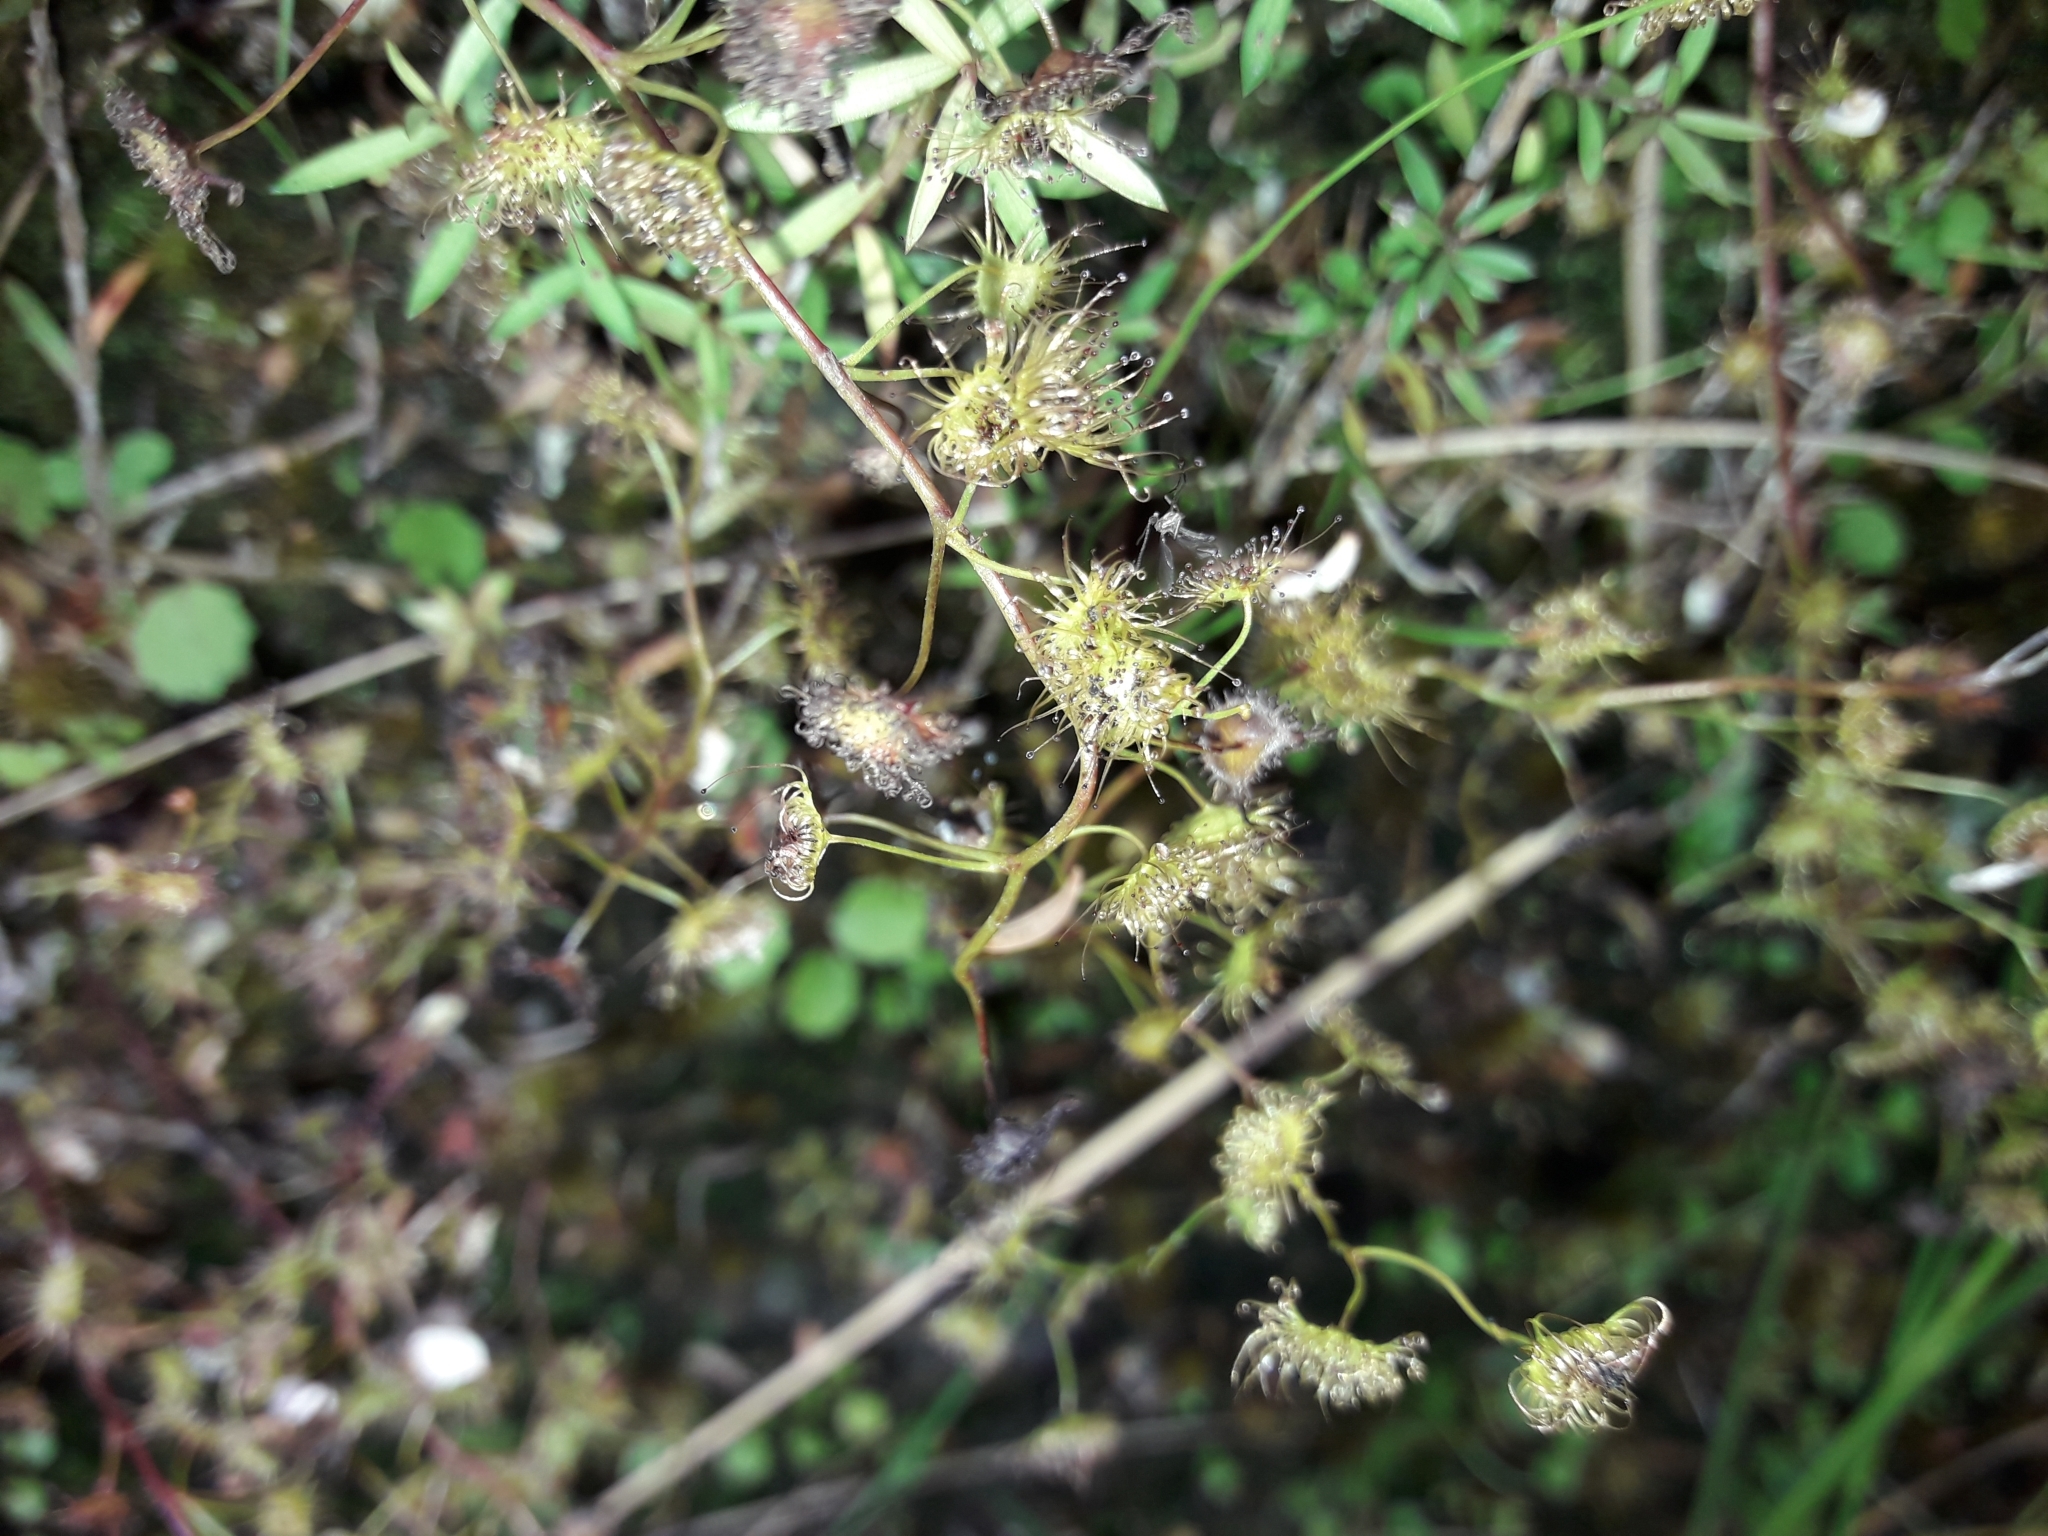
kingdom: Plantae
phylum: Tracheophyta
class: Magnoliopsida
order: Caryophyllales
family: Droseraceae
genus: Drosera
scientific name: Drosera peltata
